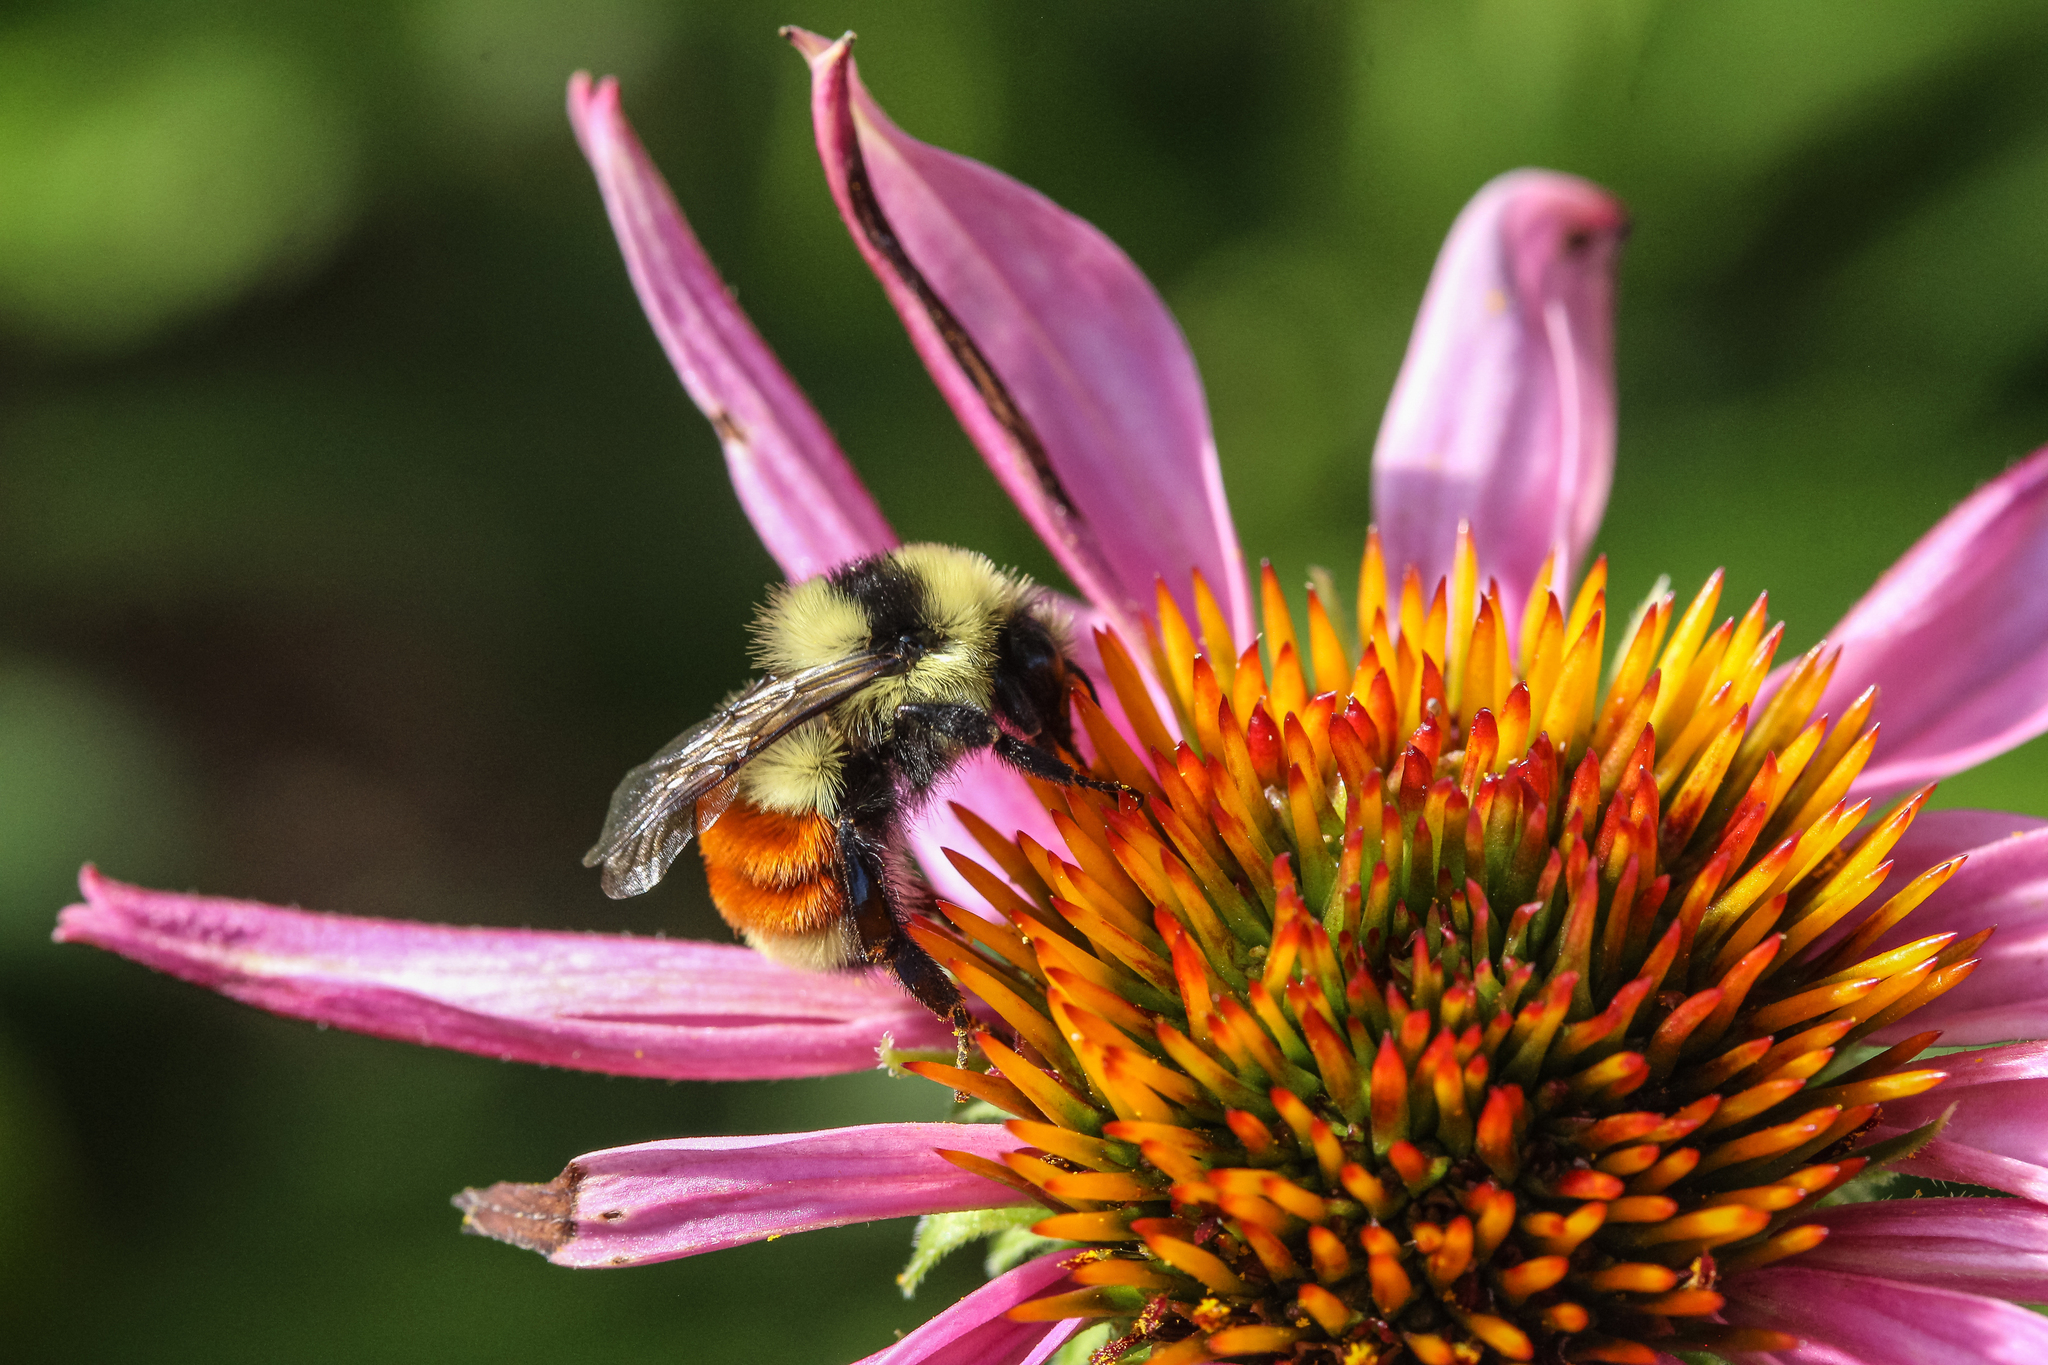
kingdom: Animalia
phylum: Arthropoda
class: Insecta
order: Hymenoptera
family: Apidae
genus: Bombus
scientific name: Bombus huntii
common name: Hunt bumble bee
